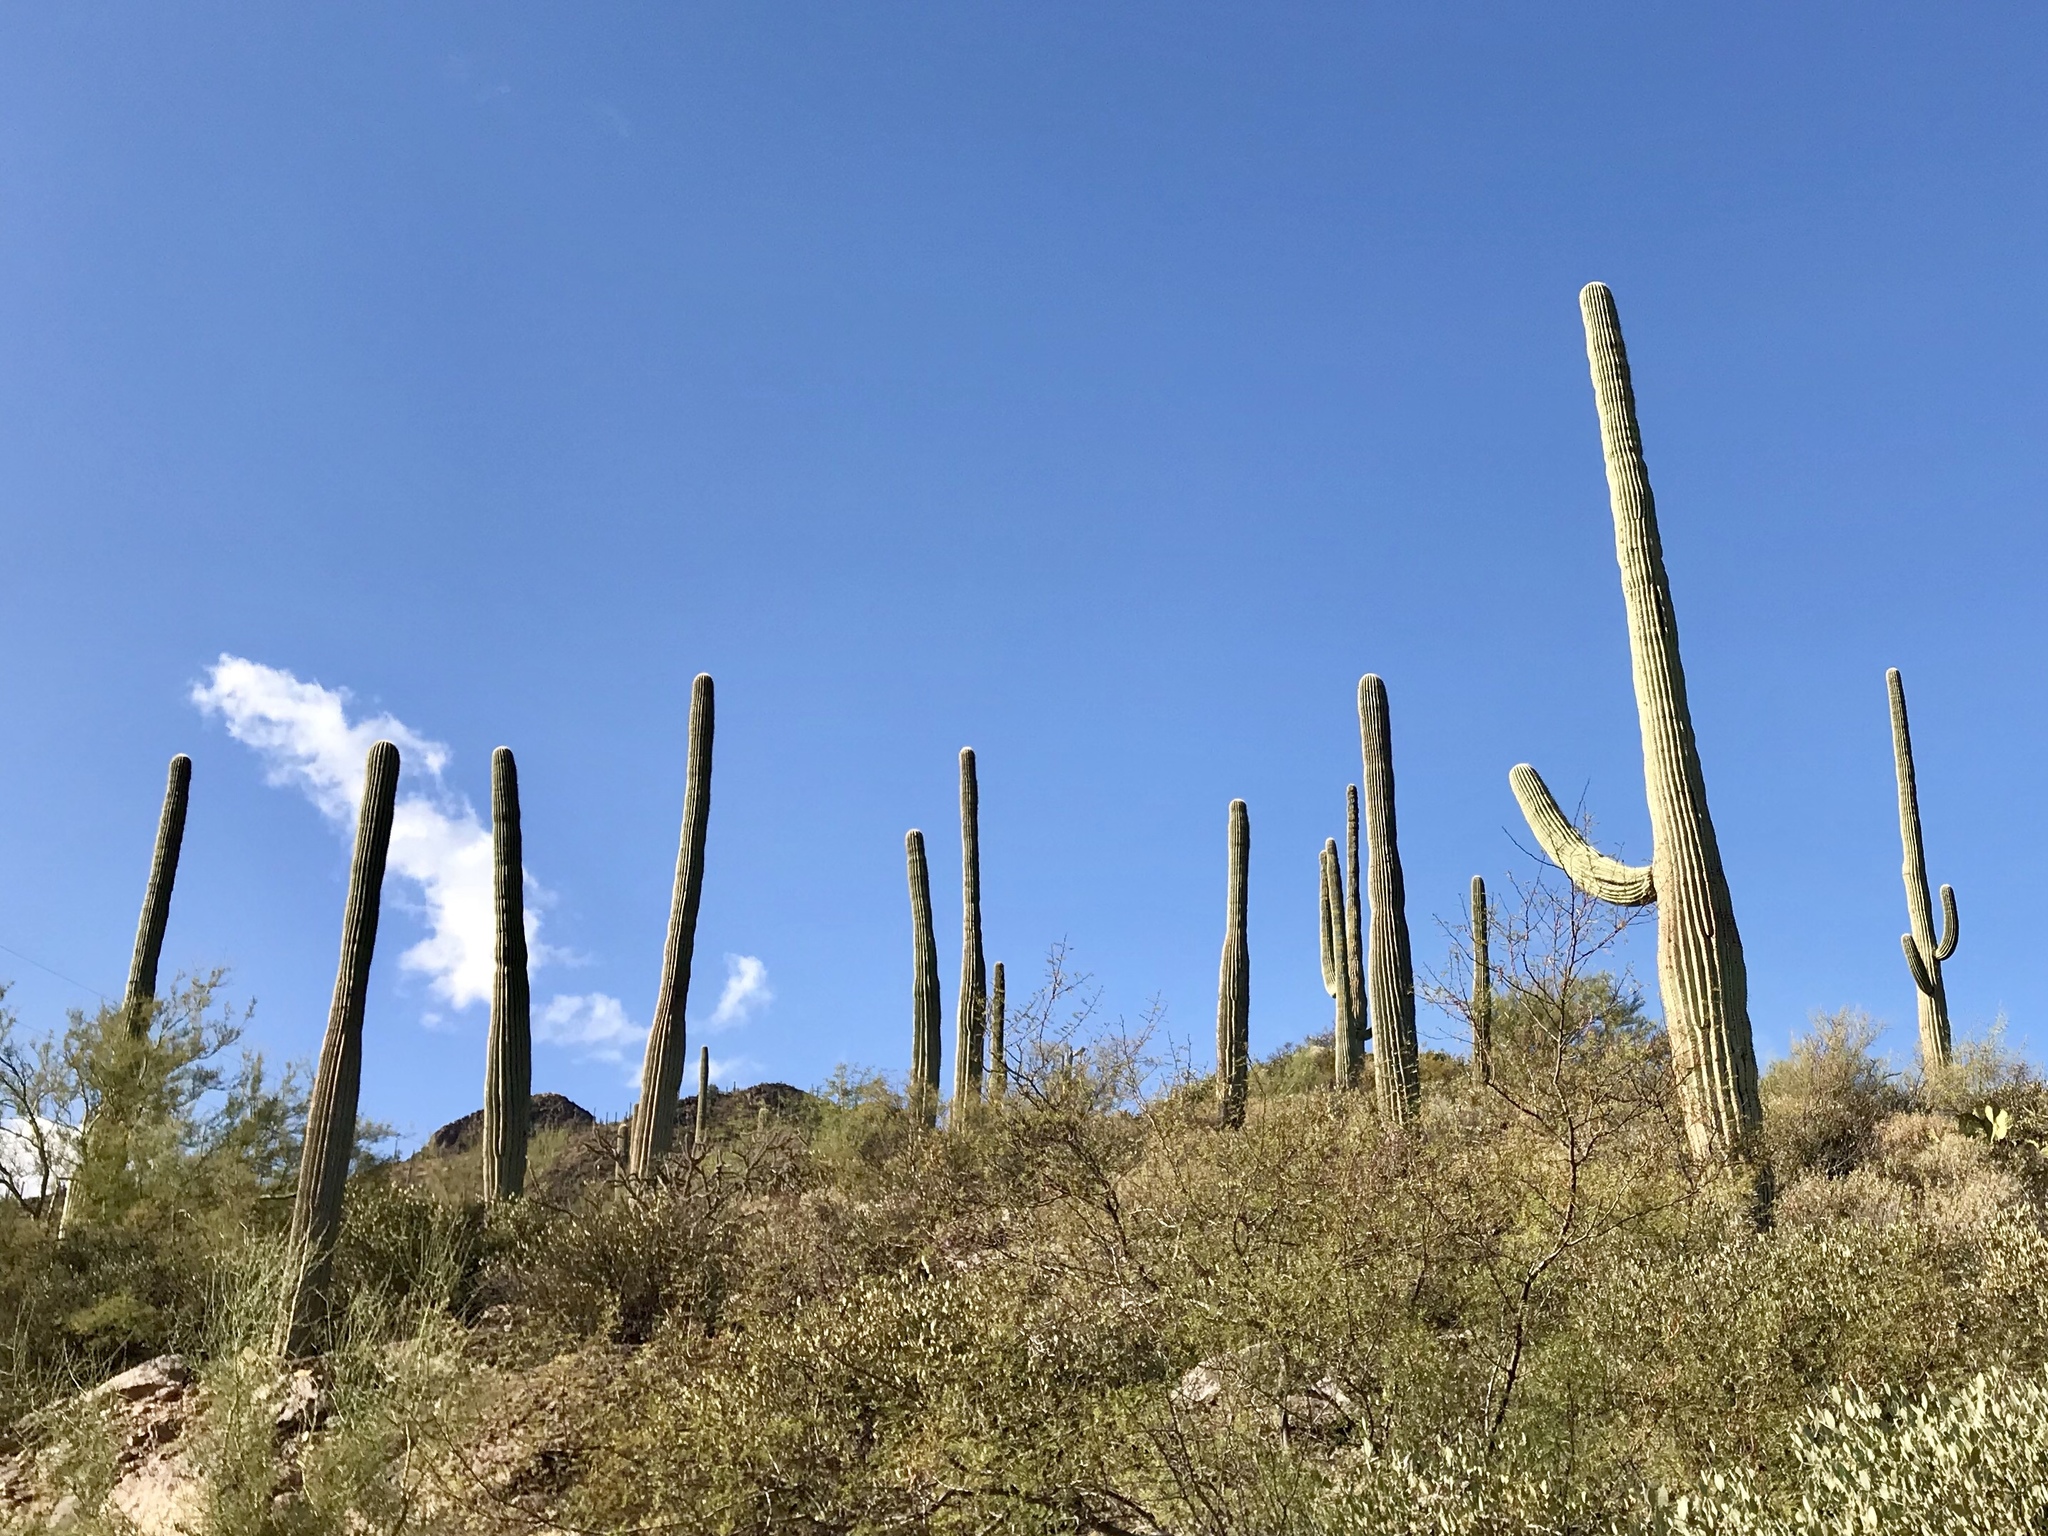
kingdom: Plantae
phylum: Tracheophyta
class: Magnoliopsida
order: Caryophyllales
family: Cactaceae
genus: Carnegiea
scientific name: Carnegiea gigantea
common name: Saguaro
